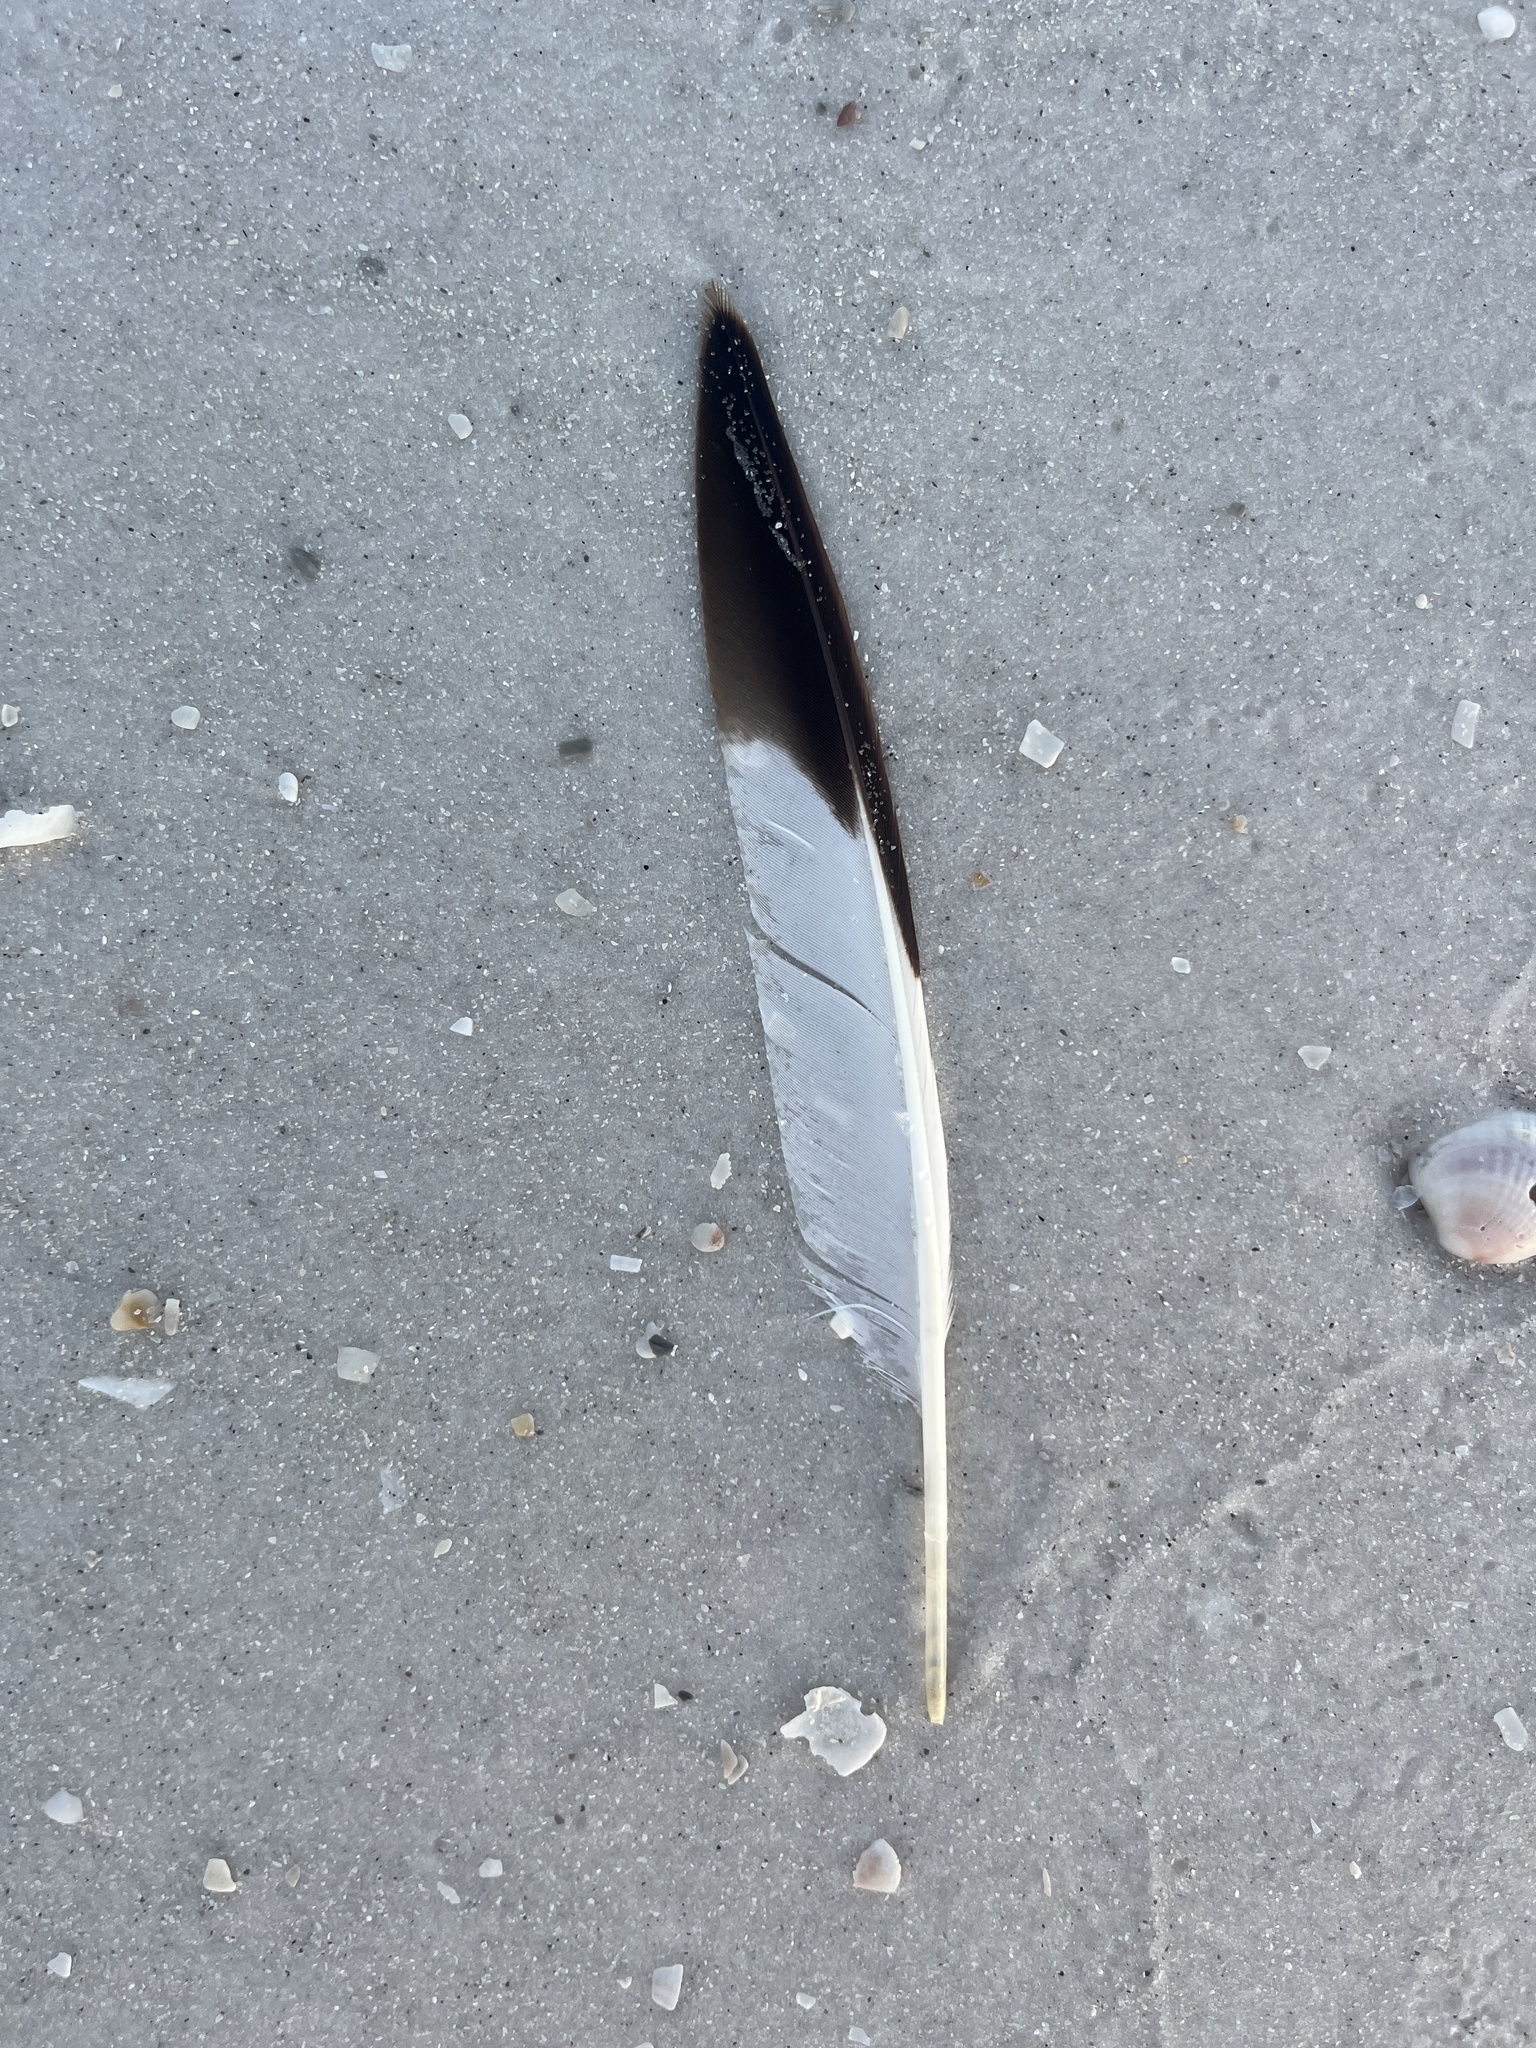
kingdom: Animalia
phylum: Chordata
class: Aves
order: Charadriiformes
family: Scolopacidae
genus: Tringa
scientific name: Tringa semipalmata
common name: Willet
